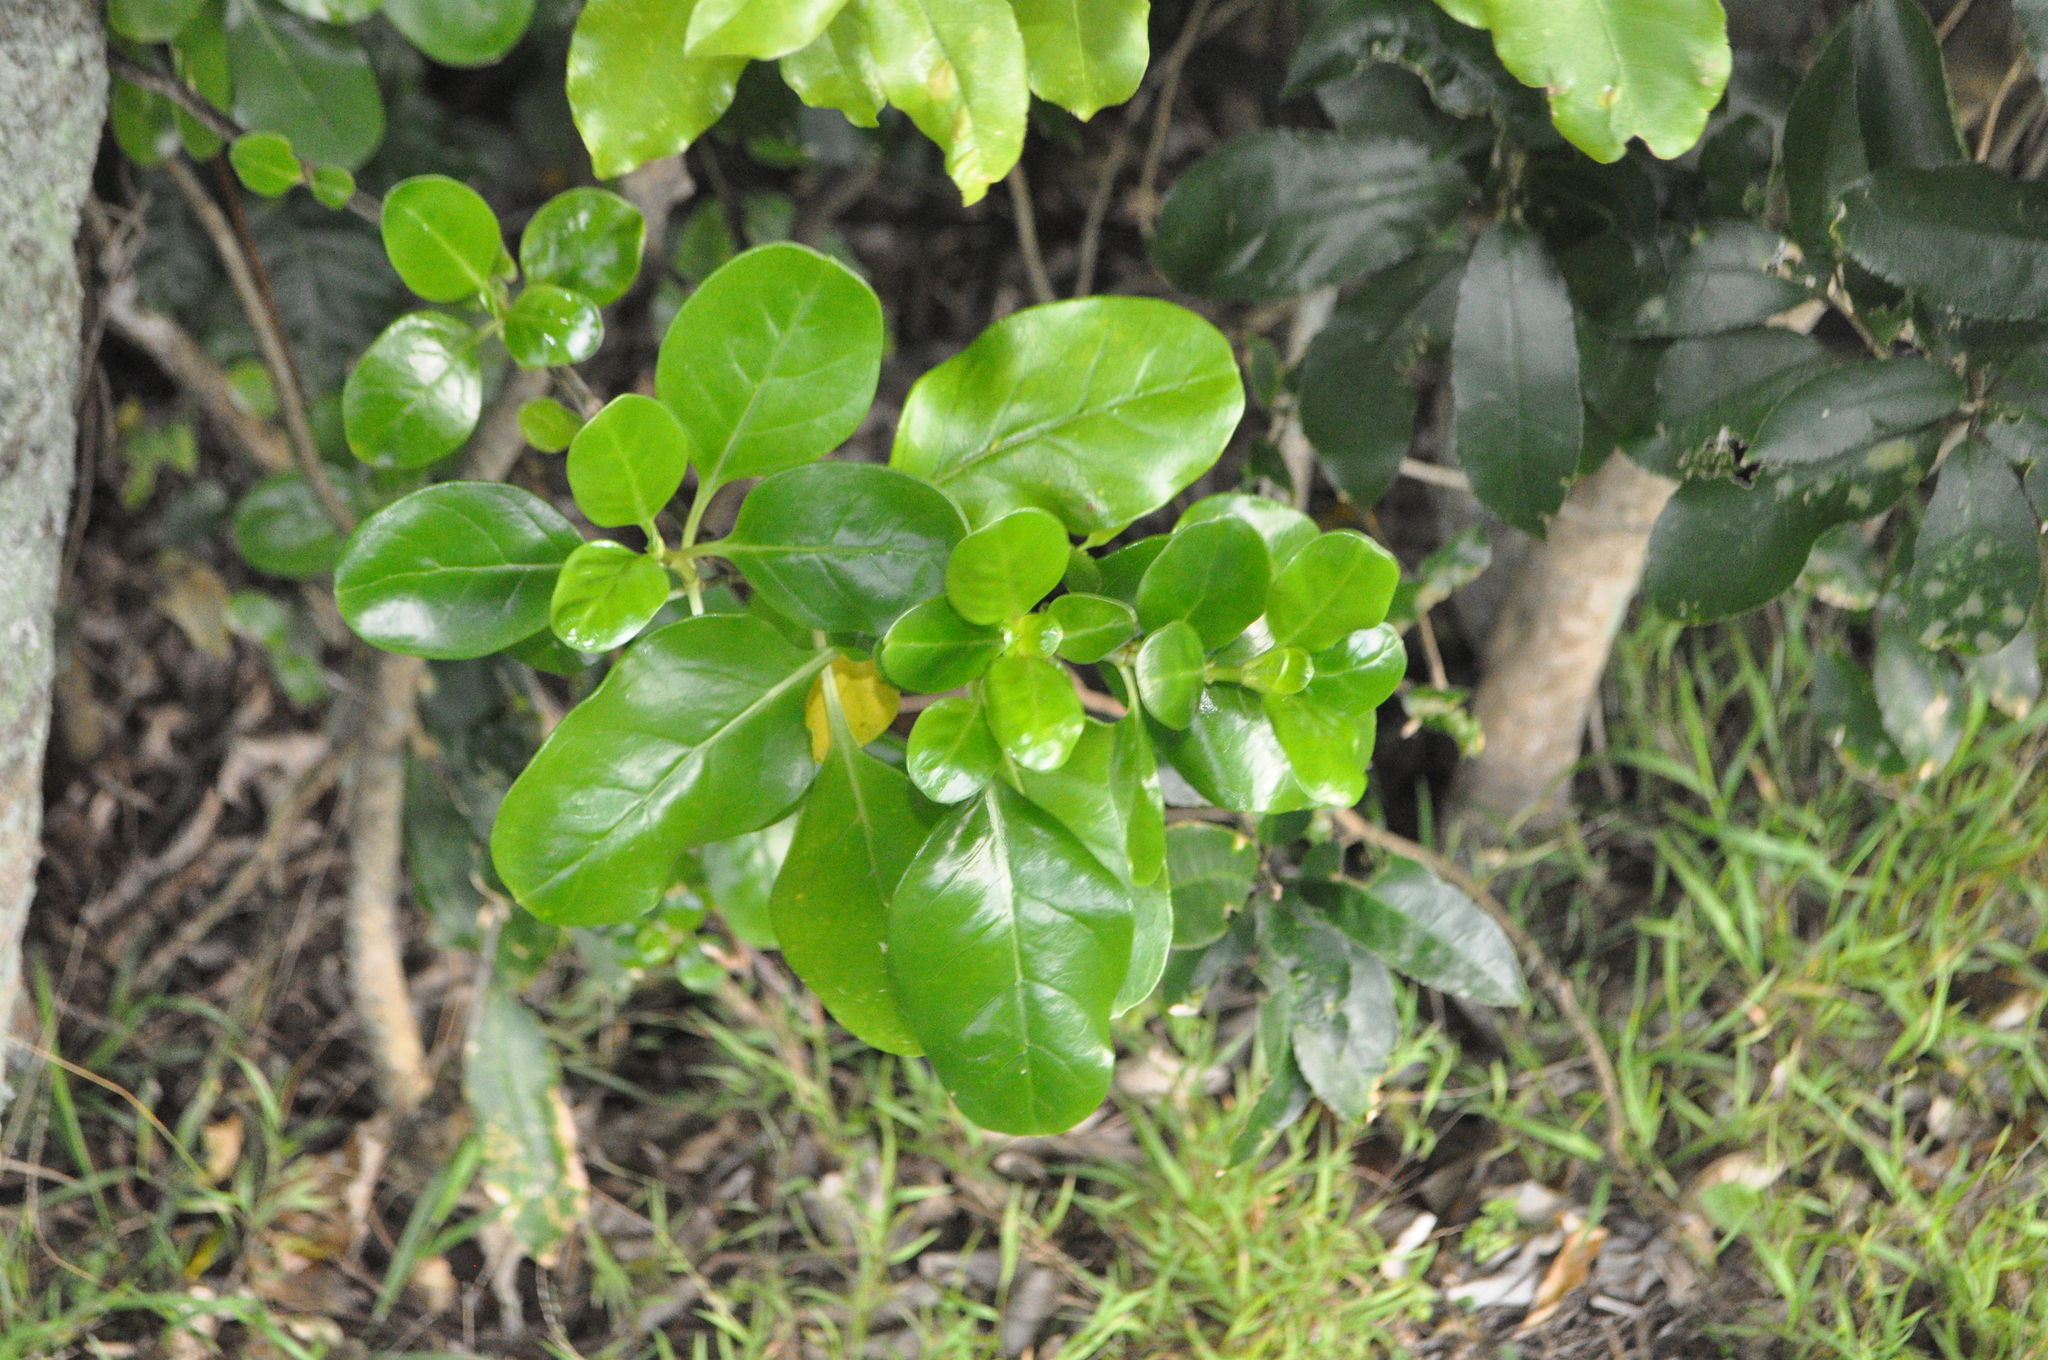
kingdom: Plantae
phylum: Tracheophyta
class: Magnoliopsida
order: Gentianales
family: Rubiaceae
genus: Coprosma
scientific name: Coprosma repens
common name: Tree bedstraw
